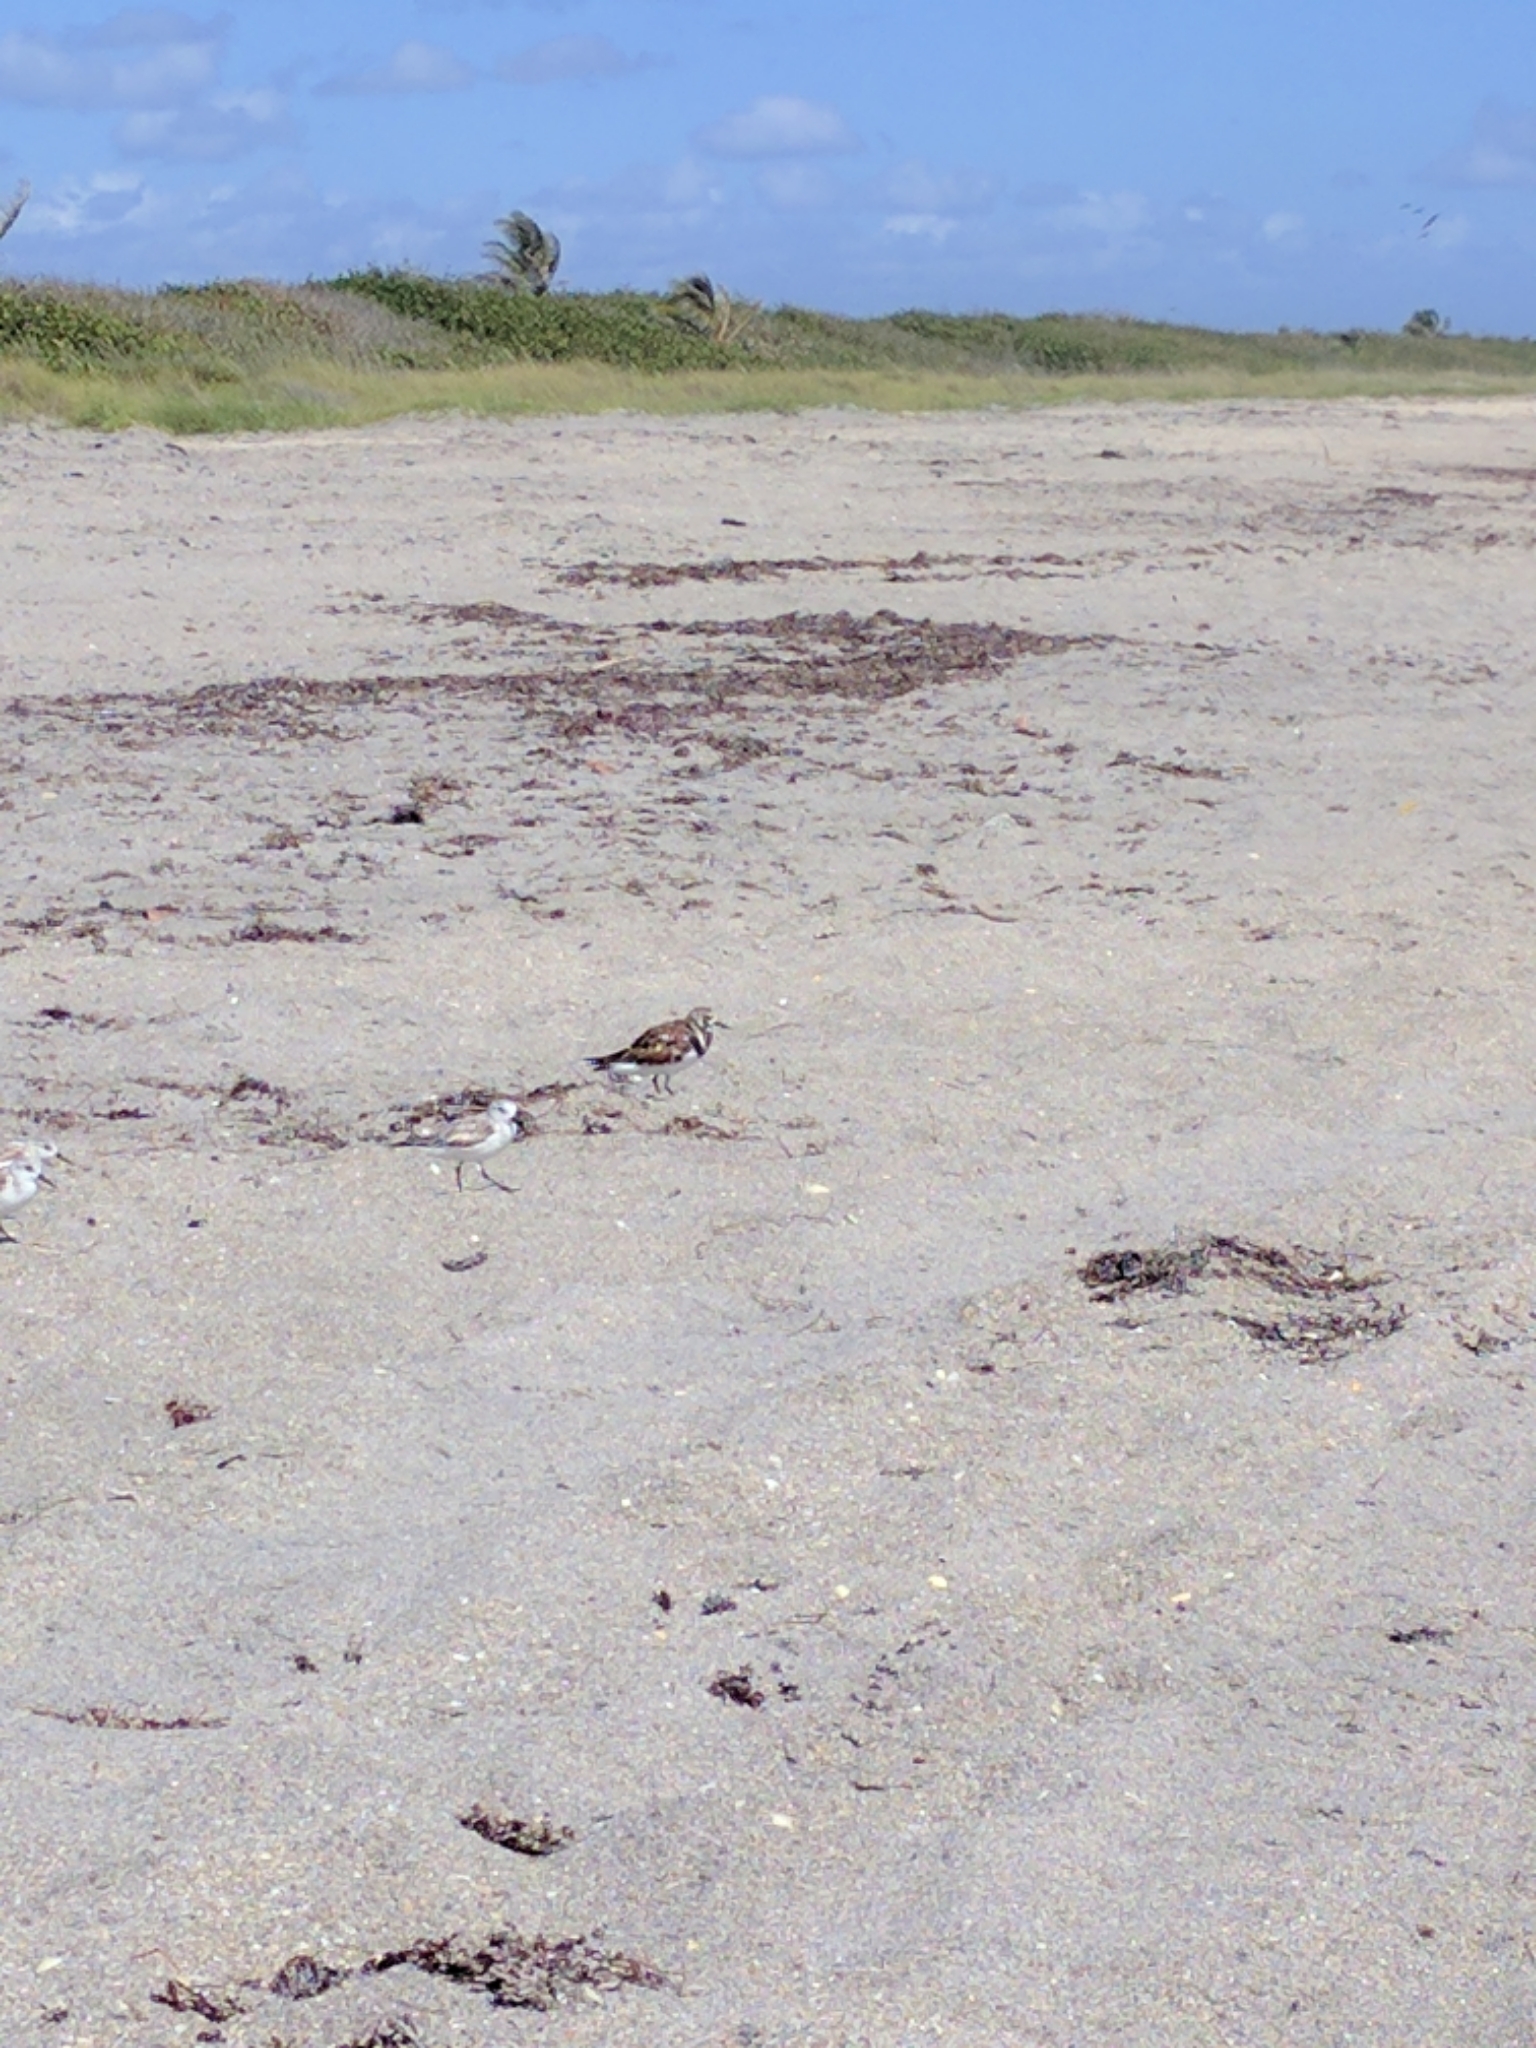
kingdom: Animalia
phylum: Chordata
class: Aves
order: Charadriiformes
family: Scolopacidae
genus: Arenaria
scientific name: Arenaria interpres
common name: Ruddy turnstone
